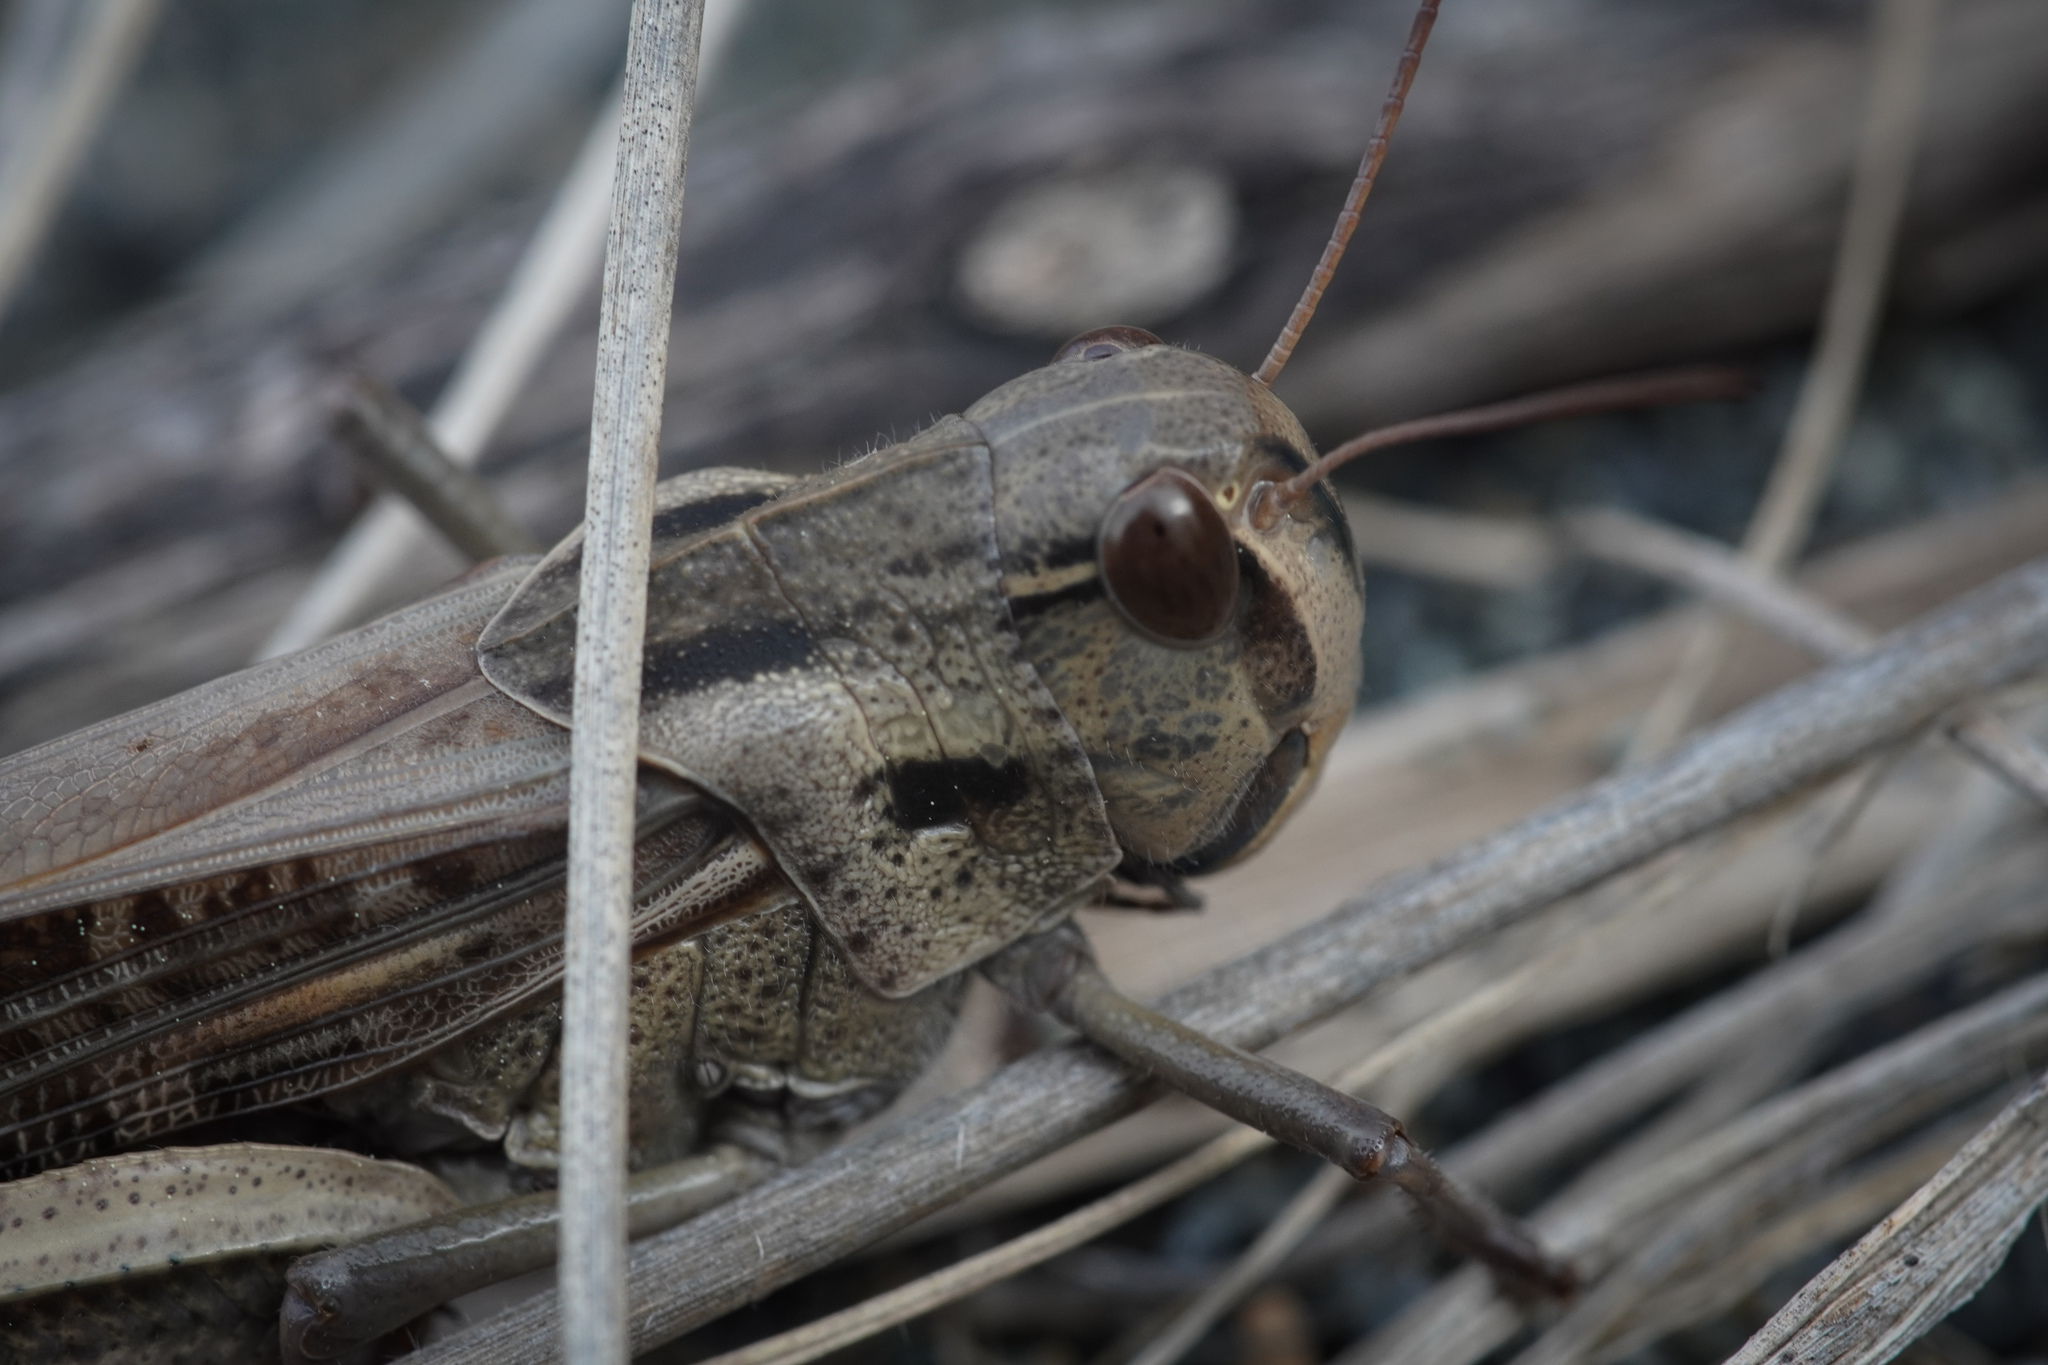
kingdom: Animalia
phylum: Arthropoda
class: Insecta
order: Orthoptera
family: Acrididae
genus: Locusta
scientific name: Locusta migratoria
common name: Migratory locust
